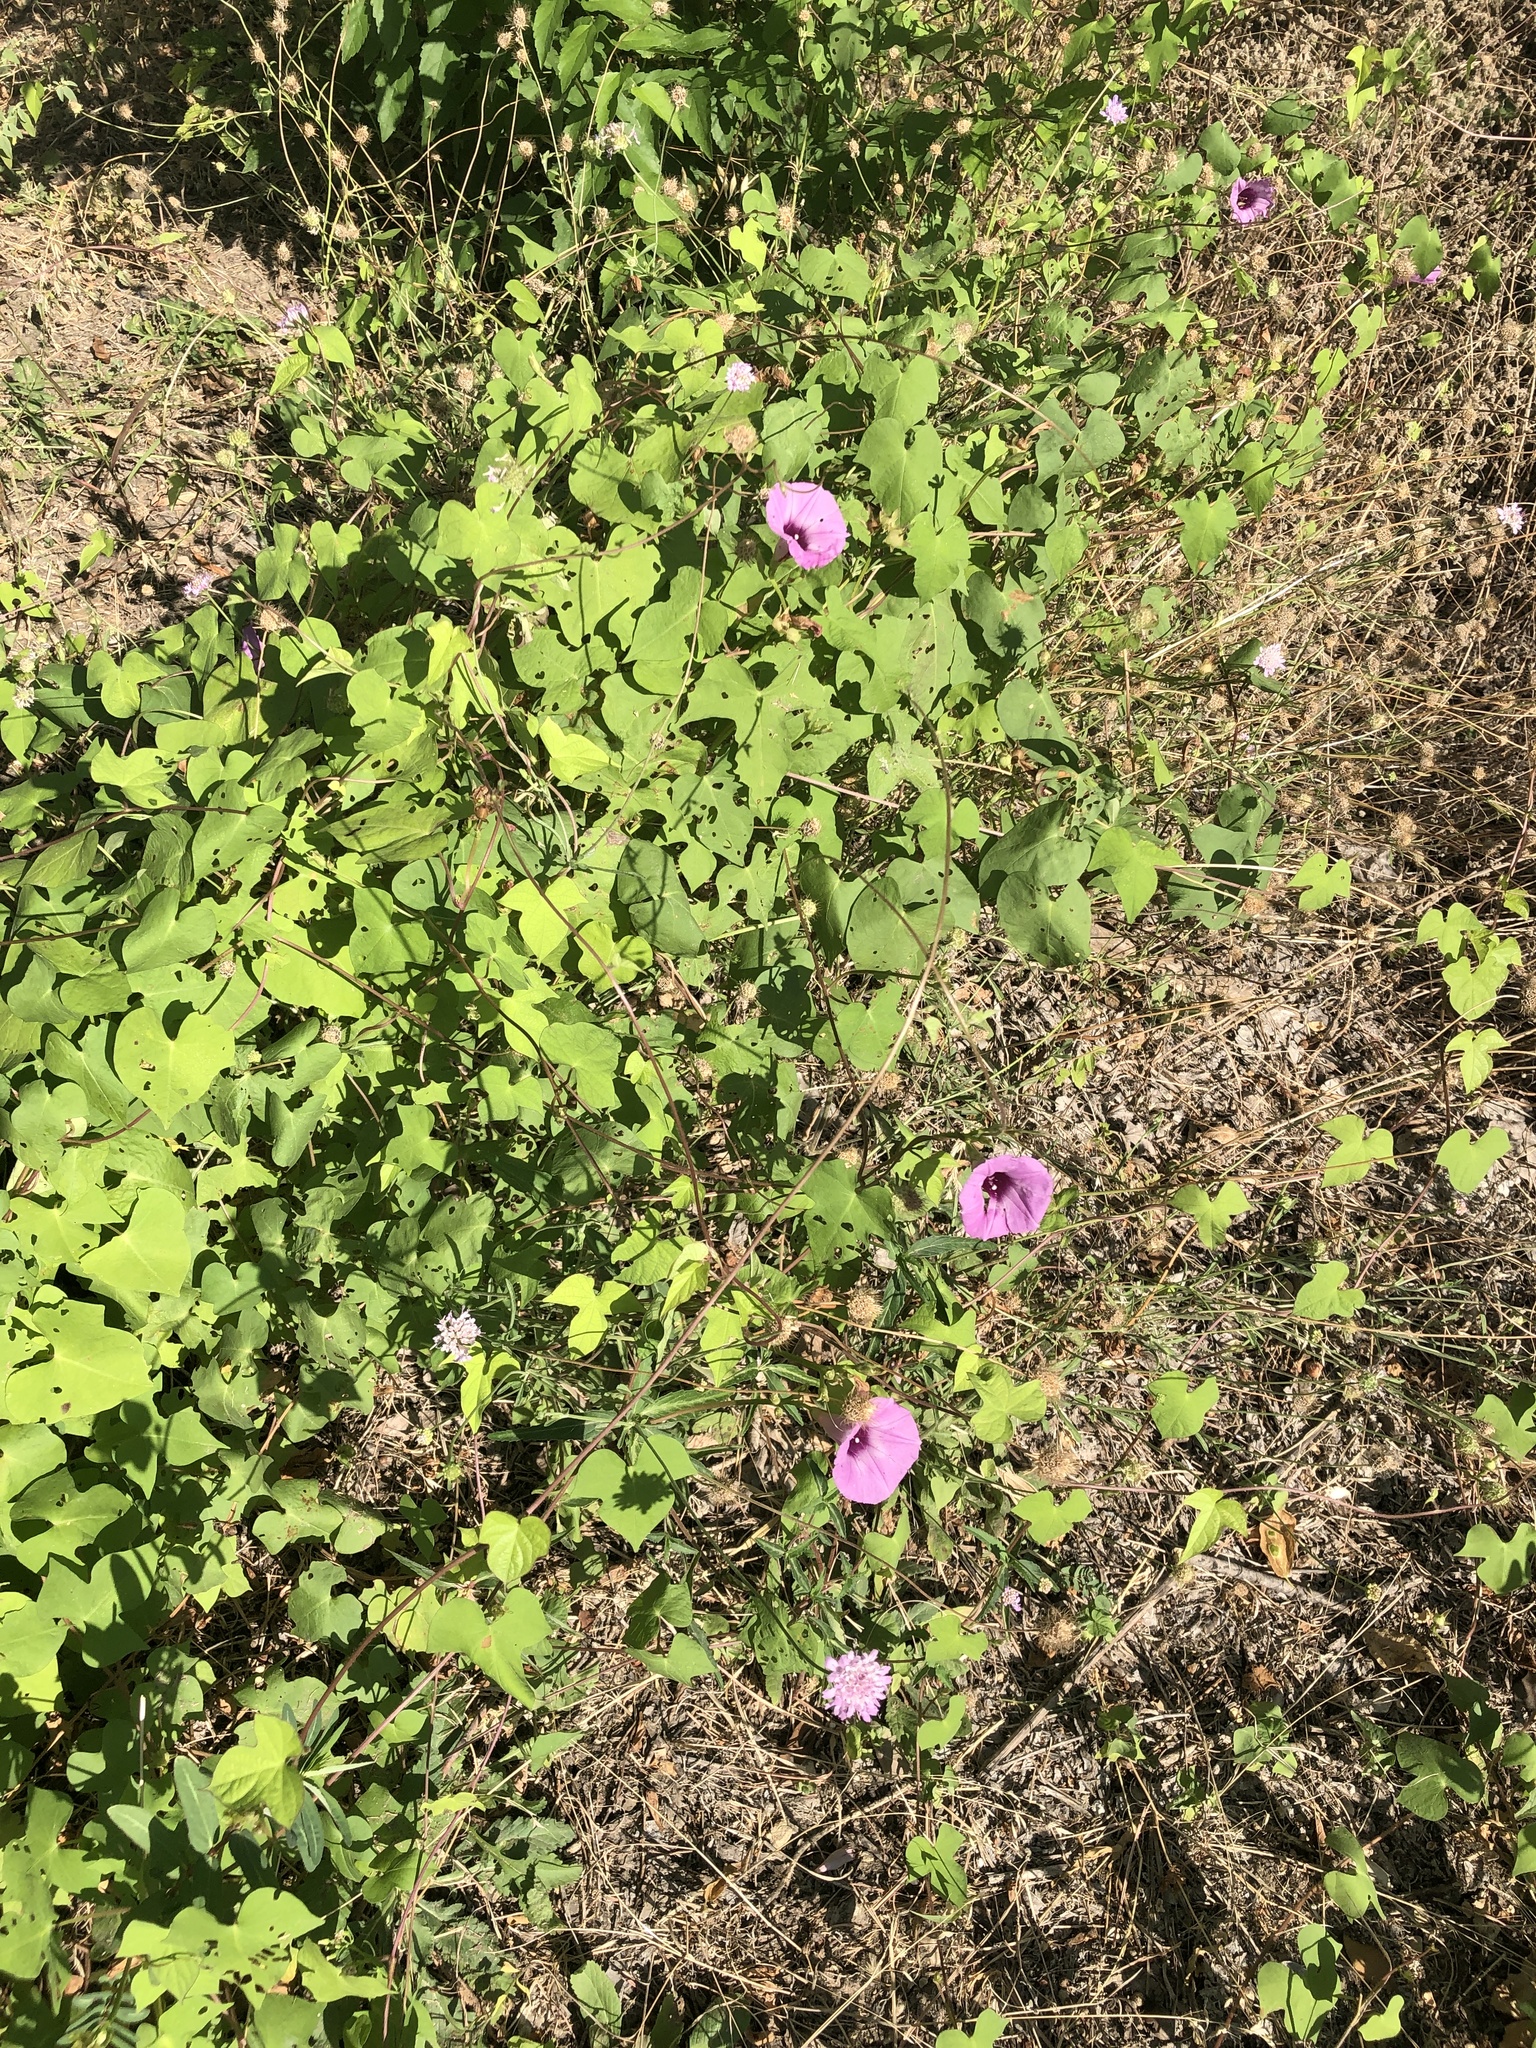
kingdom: Plantae
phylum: Tracheophyta
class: Magnoliopsida
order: Solanales
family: Convolvulaceae
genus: Ipomoea
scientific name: Ipomoea cordatotriloba
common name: Cotton morning glory
